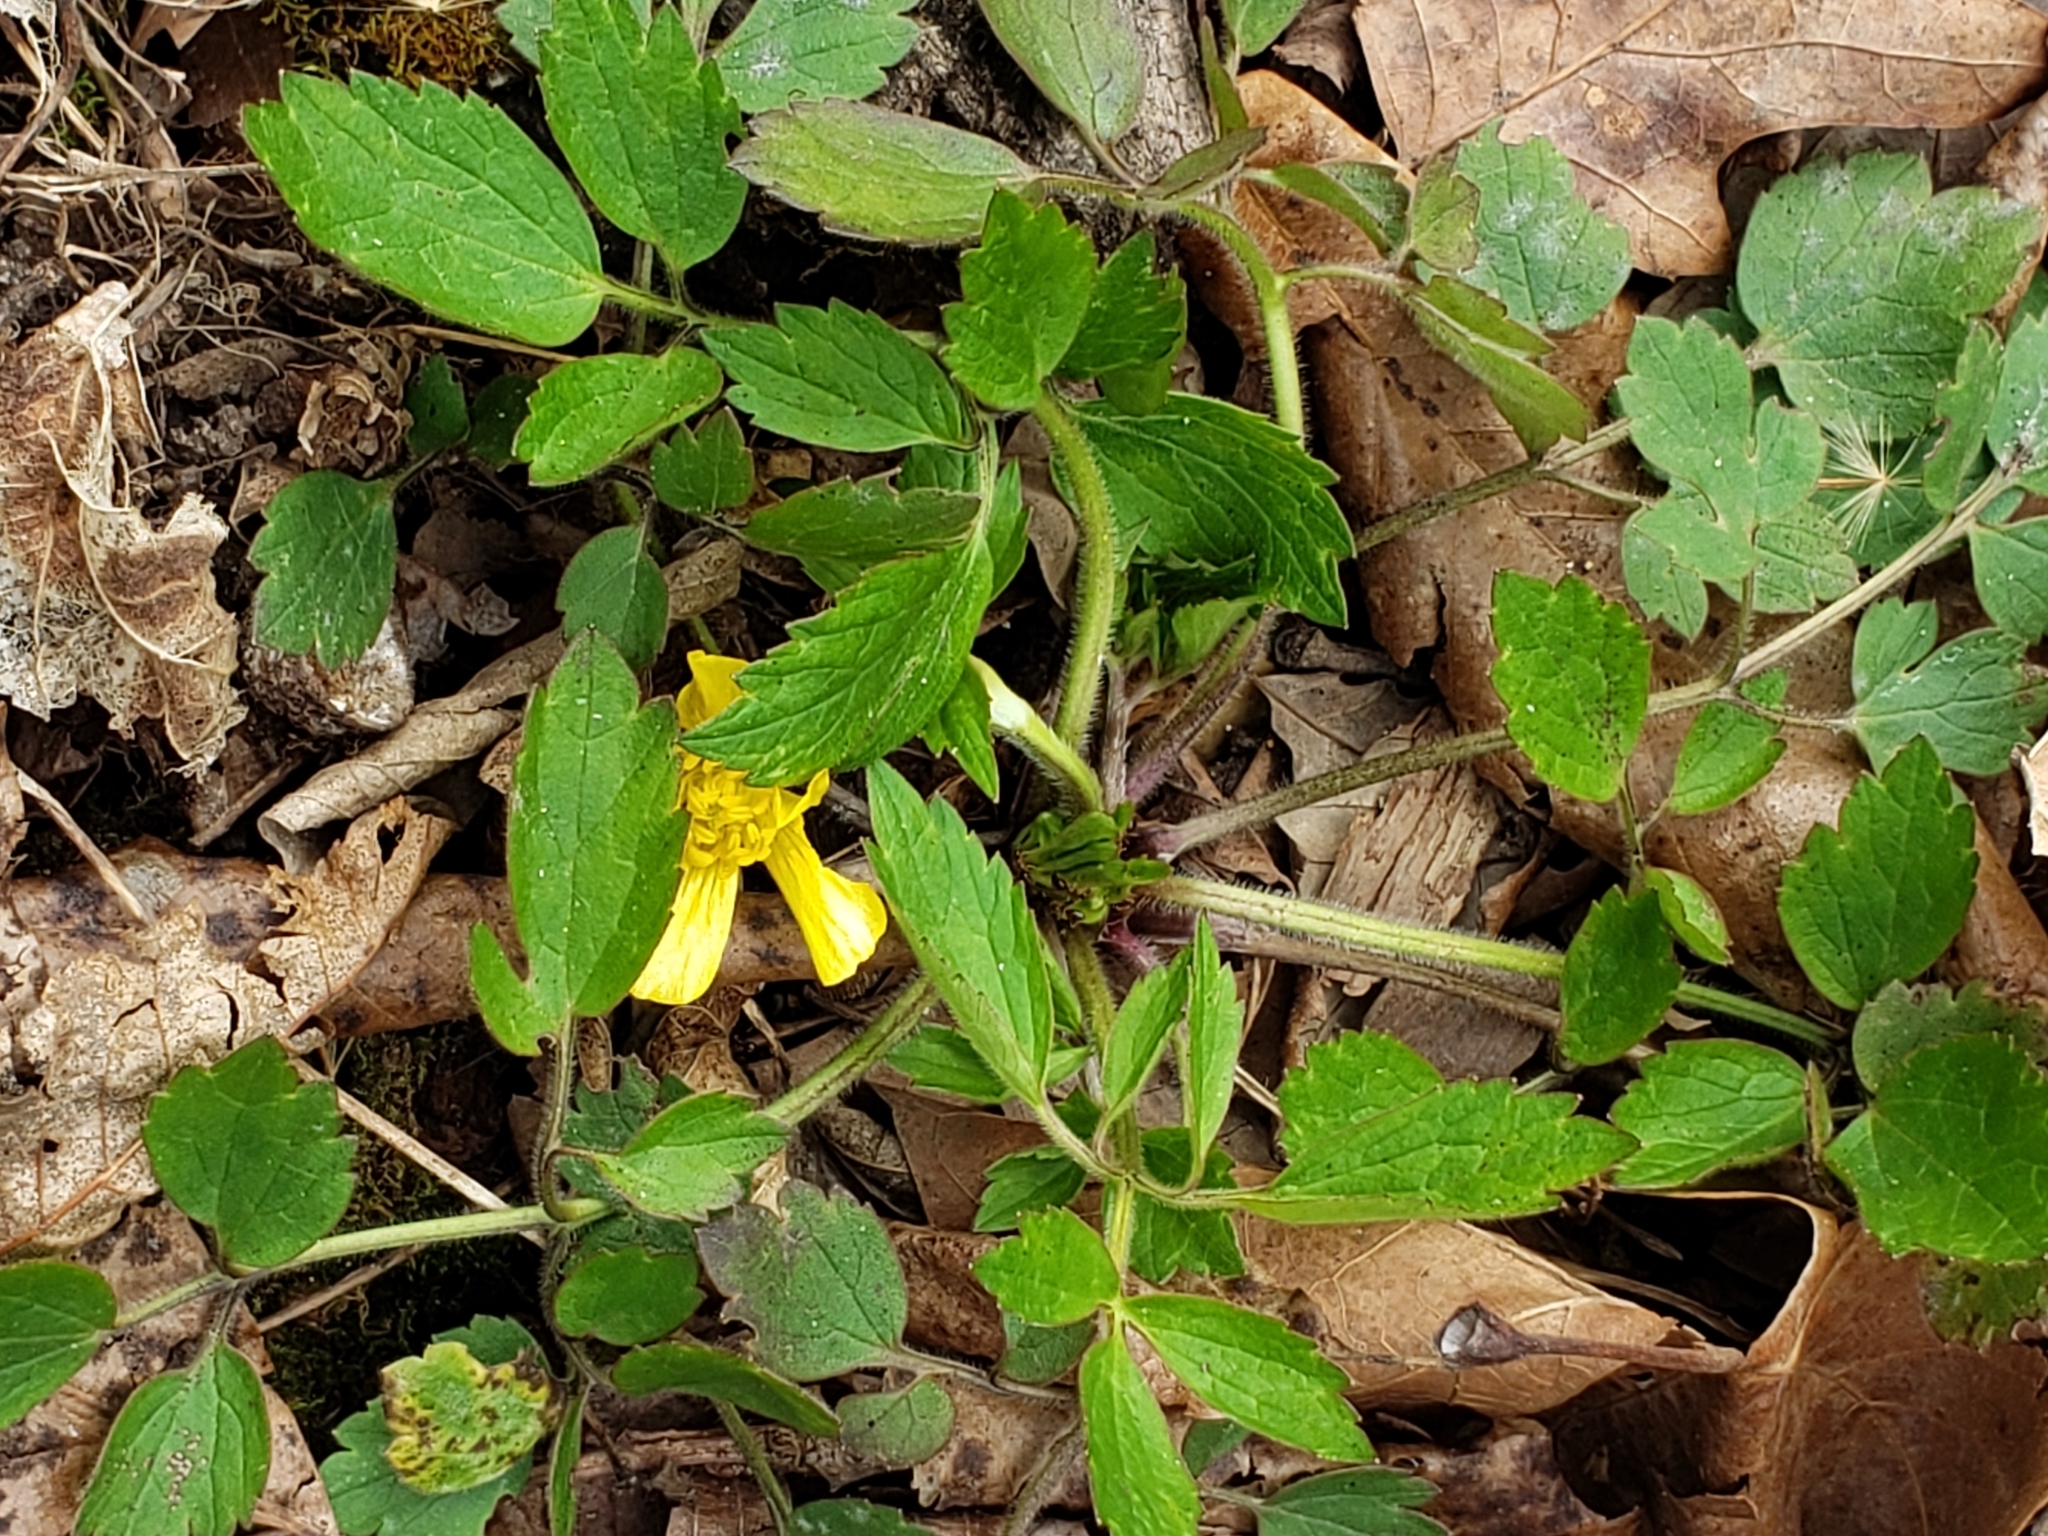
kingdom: Plantae
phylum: Tracheophyta
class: Magnoliopsida
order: Ranunculales
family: Ranunculaceae
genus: Ranunculus
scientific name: Ranunculus hispidus
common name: Bristly buttercup
